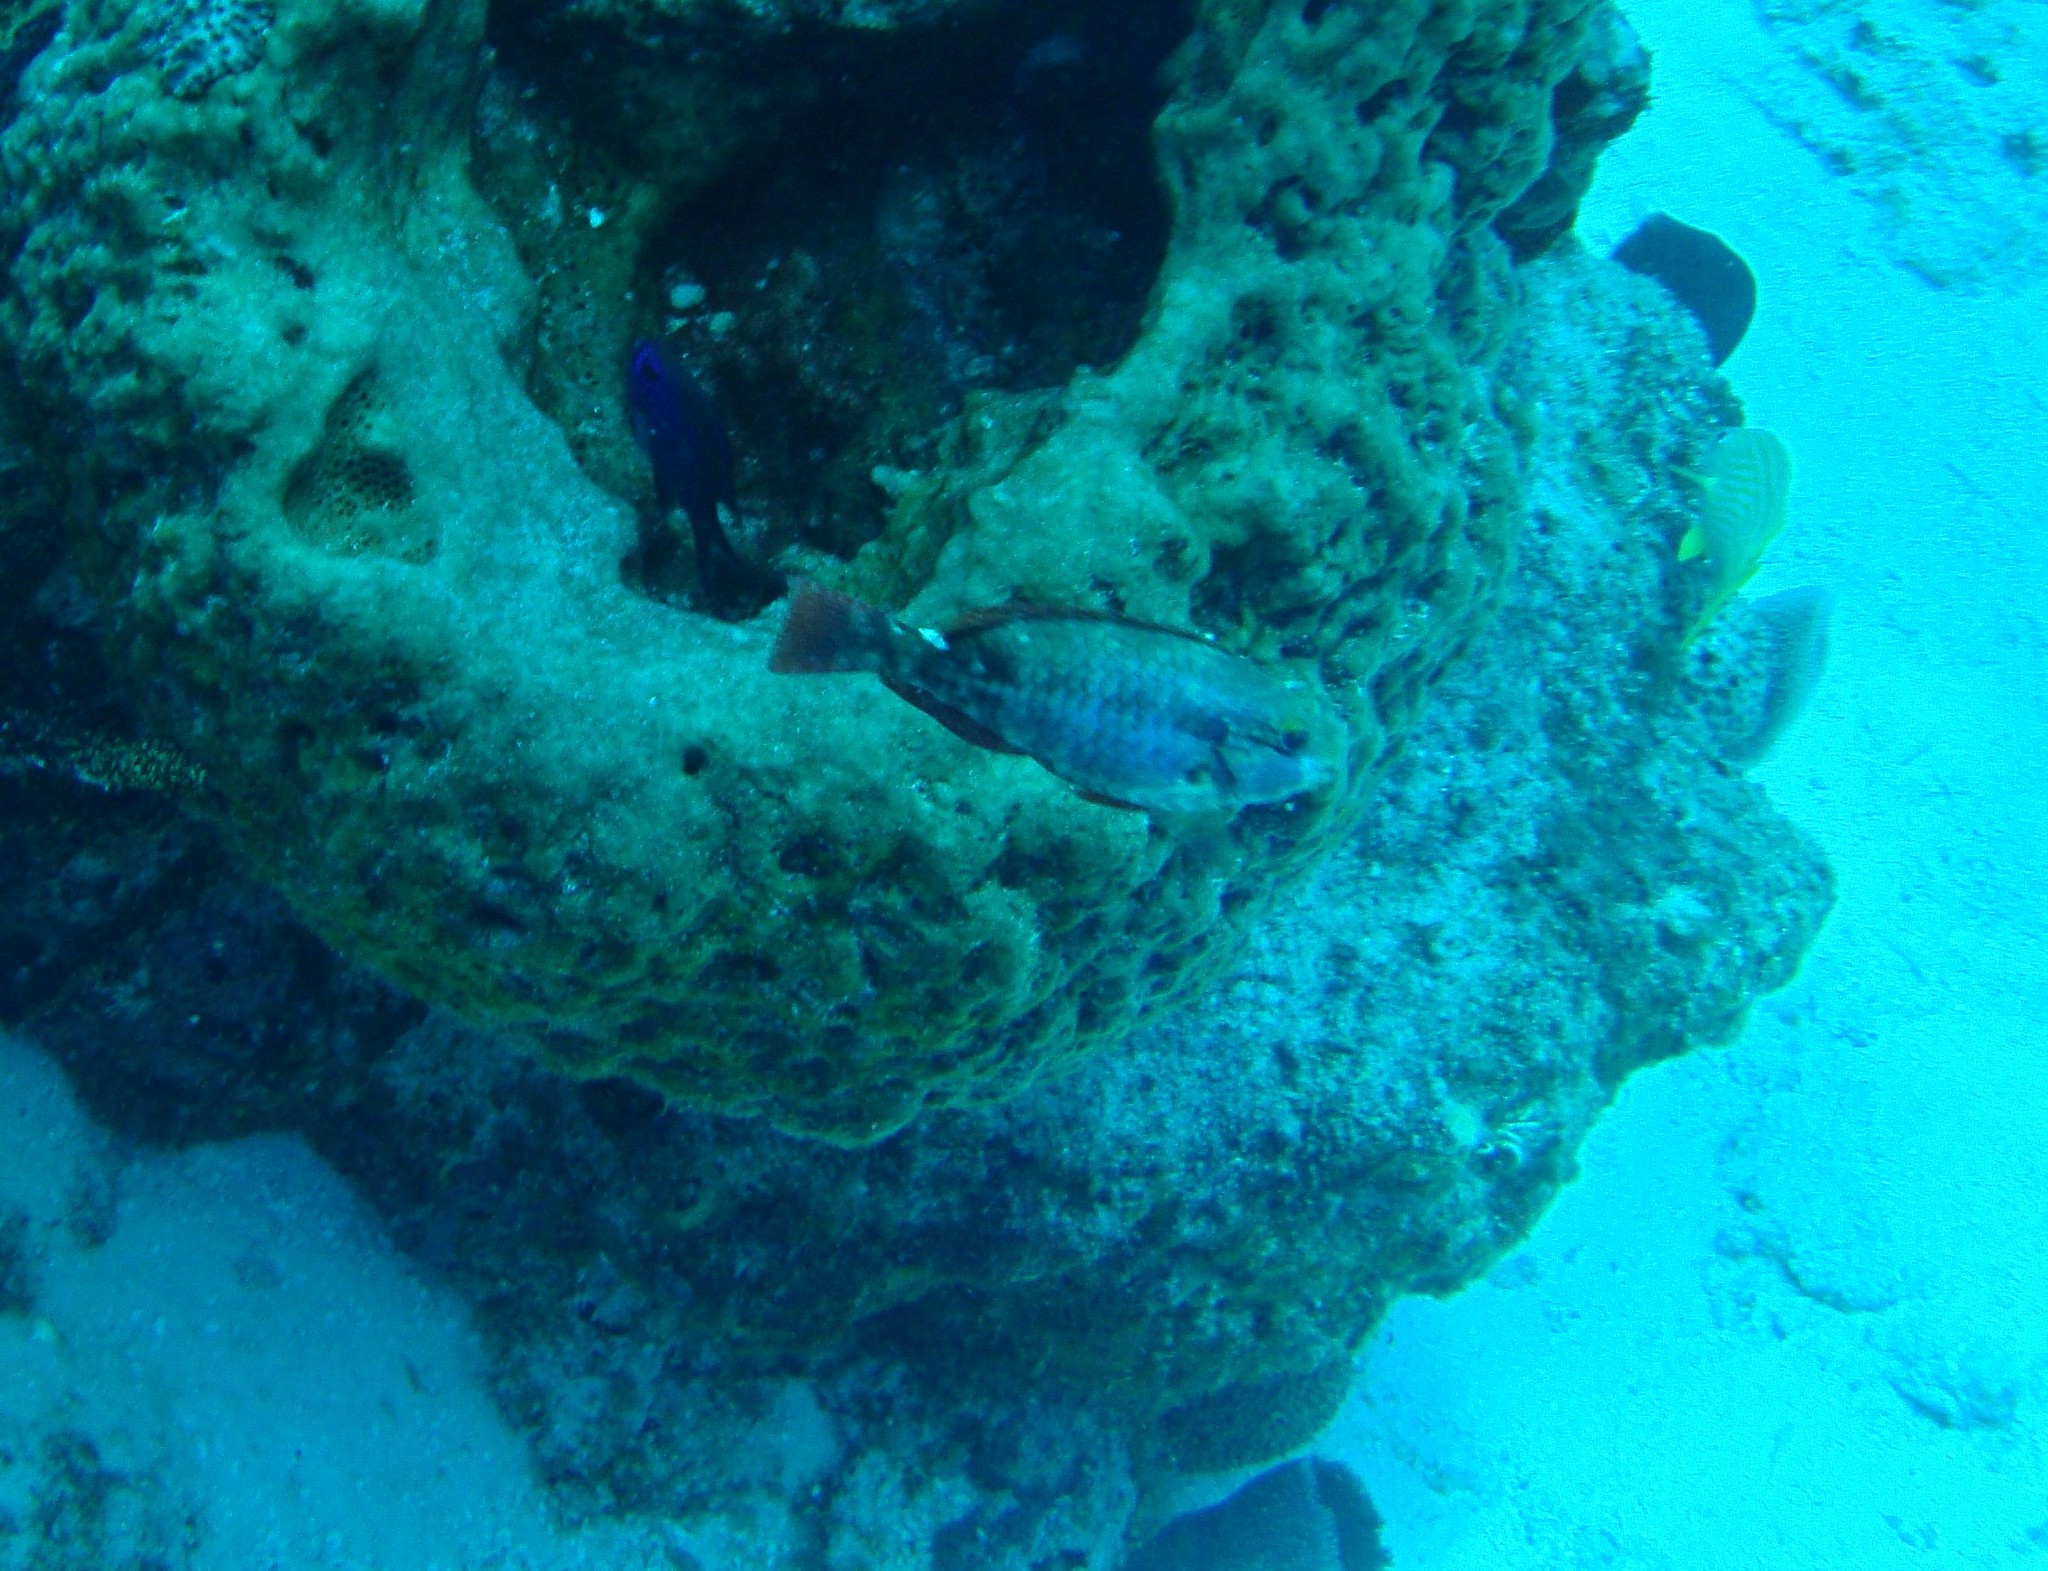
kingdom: Animalia
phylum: Chordata
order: Perciformes
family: Scaridae
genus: Sparisoma
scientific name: Sparisoma aurofrenatum
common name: Redband parrotfish
